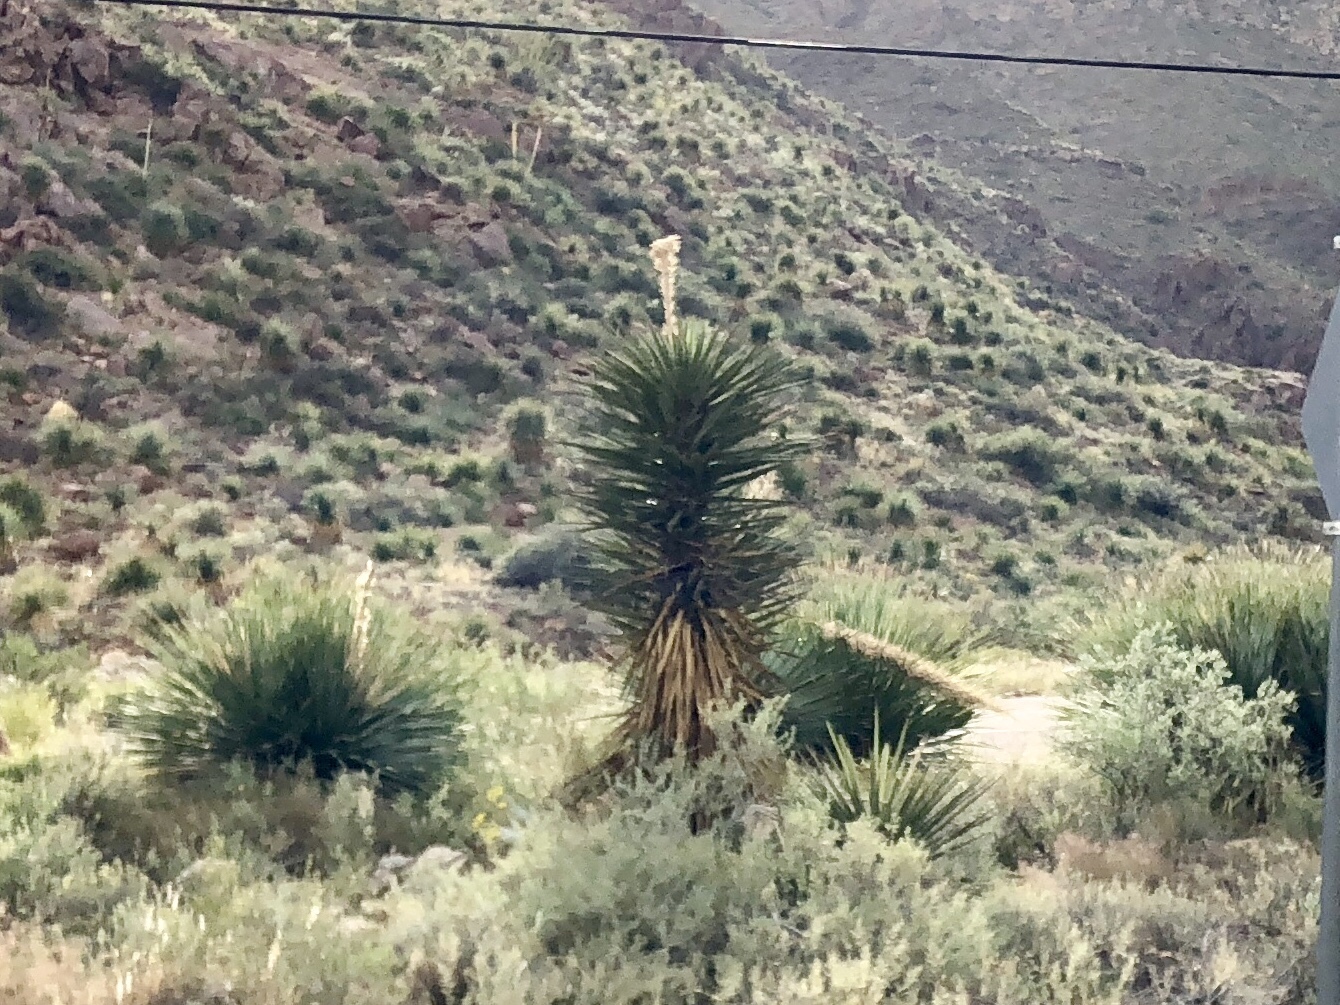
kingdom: Plantae
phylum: Tracheophyta
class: Liliopsida
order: Asparagales
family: Asparagaceae
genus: Yucca
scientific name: Yucca elata
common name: Palmella
